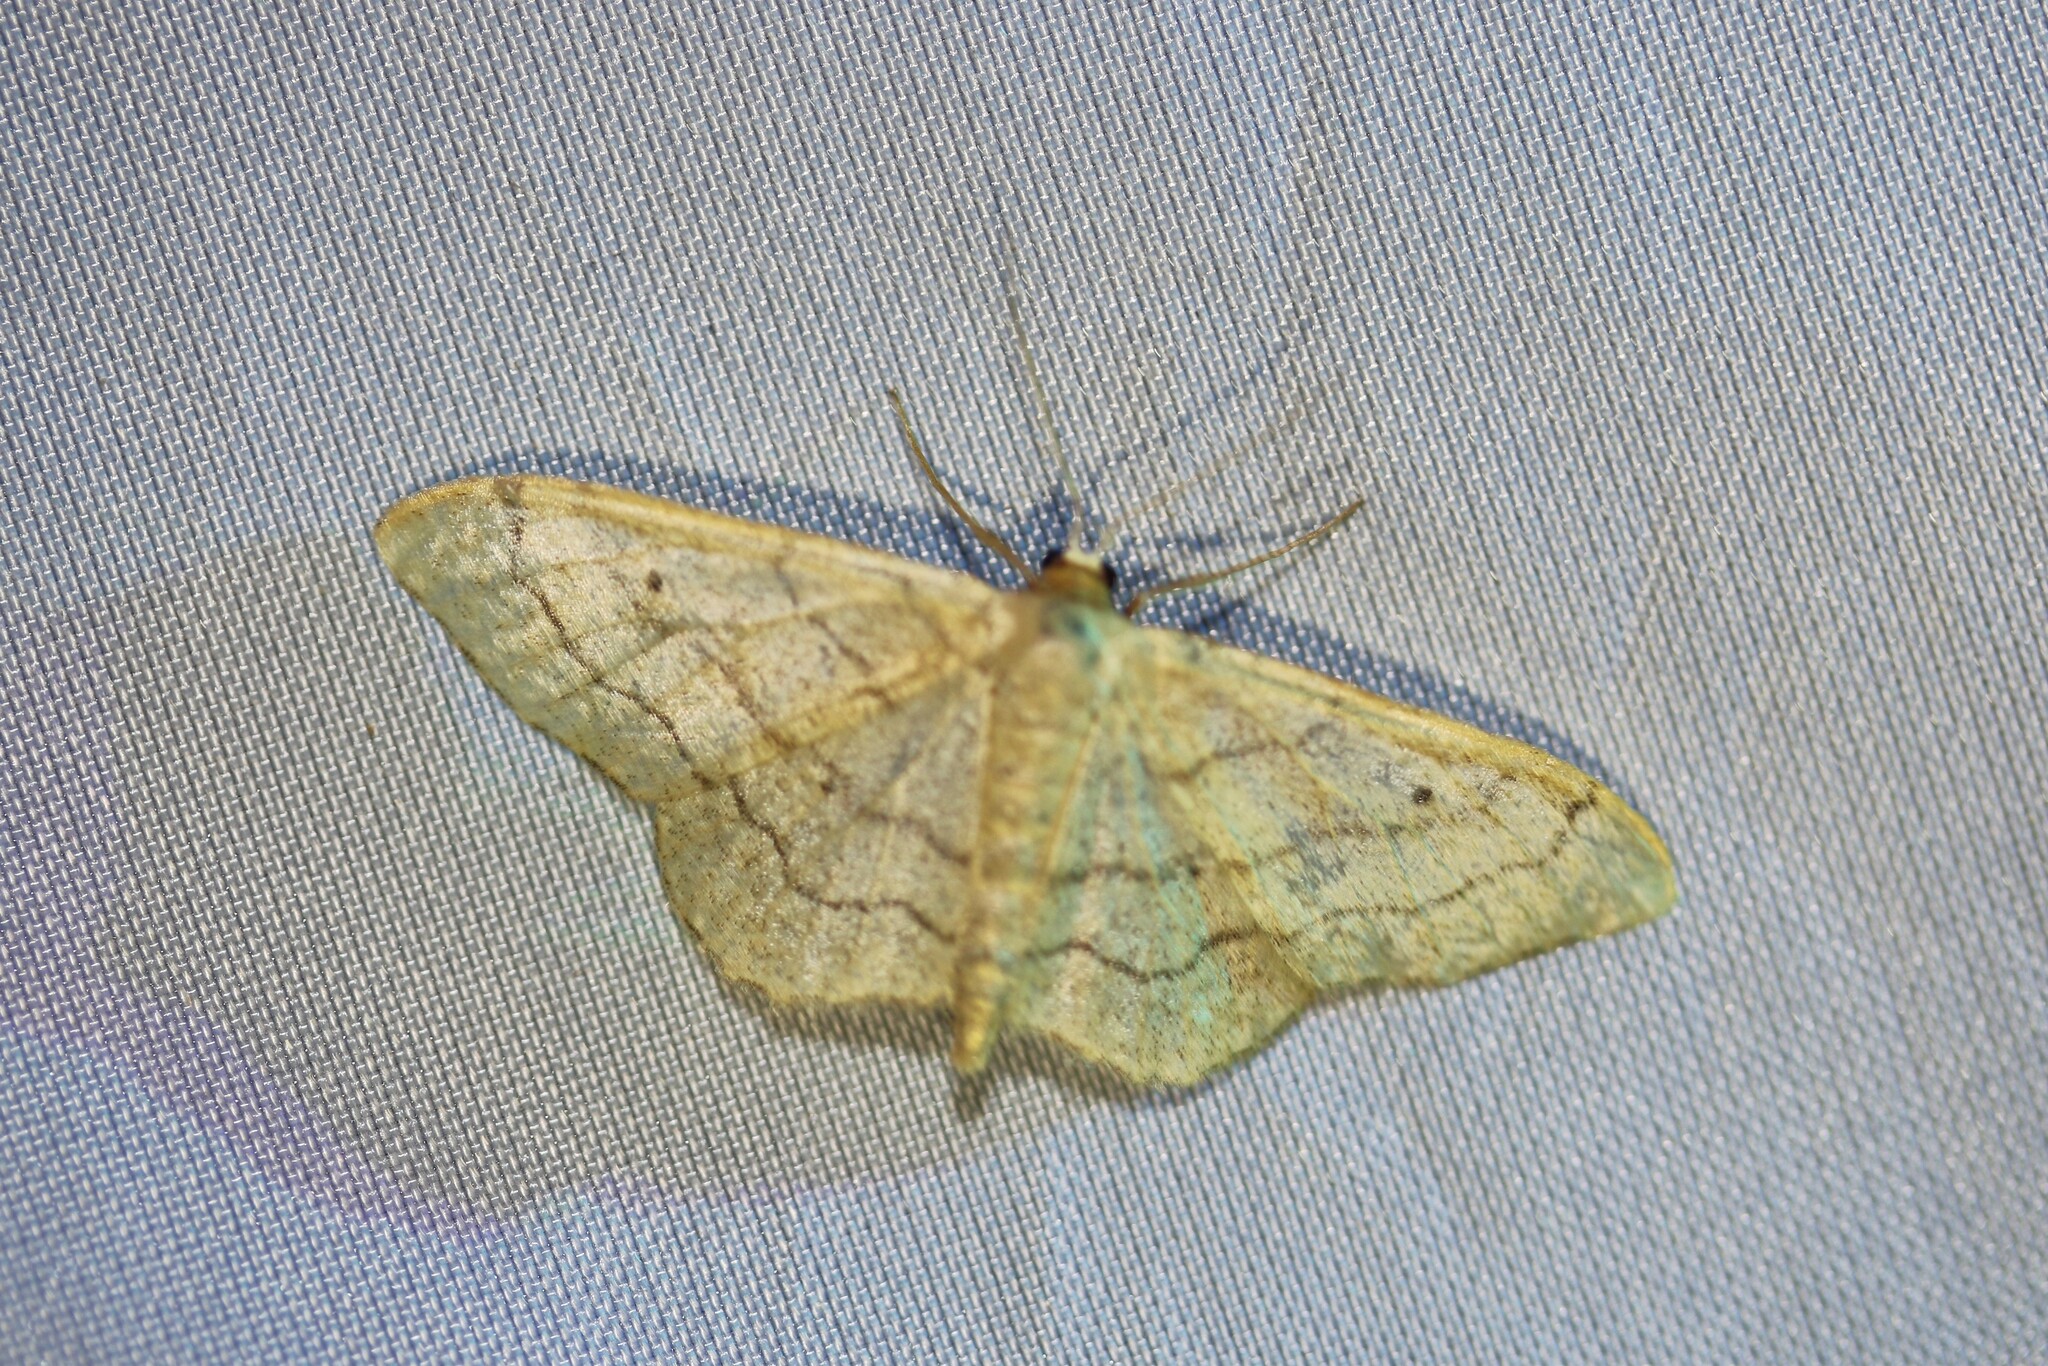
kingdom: Animalia
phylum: Arthropoda
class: Insecta
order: Lepidoptera
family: Geometridae
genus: Idaea
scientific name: Idaea aversata
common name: Riband wave
